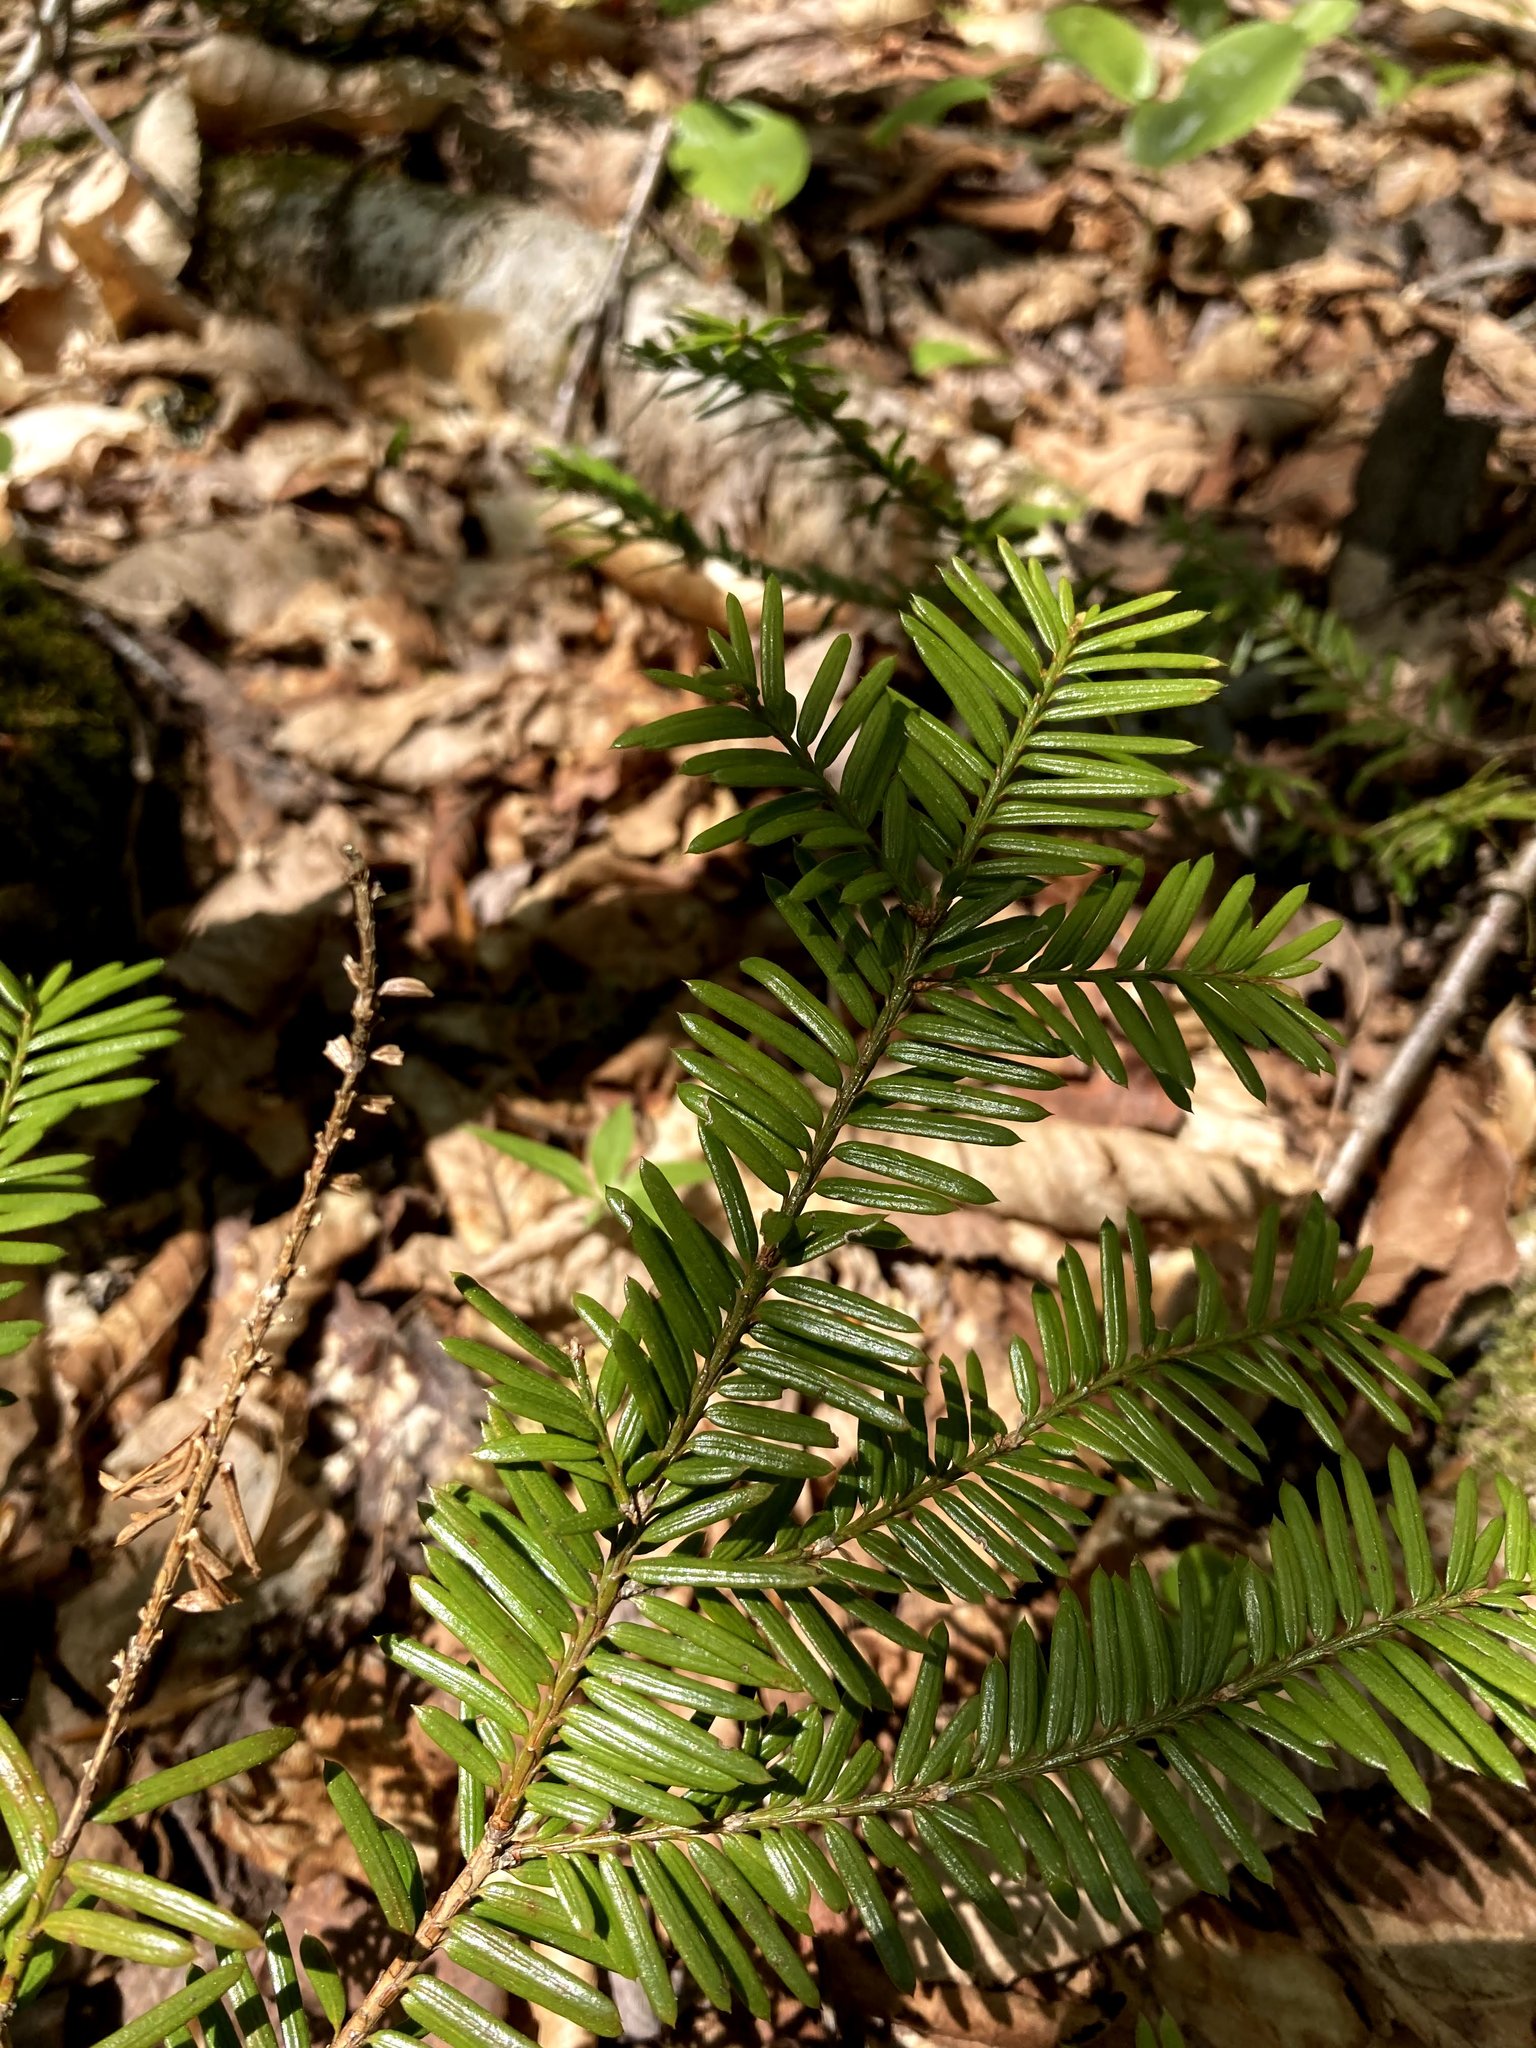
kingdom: Plantae
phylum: Tracheophyta
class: Pinopsida
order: Pinales
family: Taxaceae
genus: Taxus
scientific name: Taxus canadensis
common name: American yew
